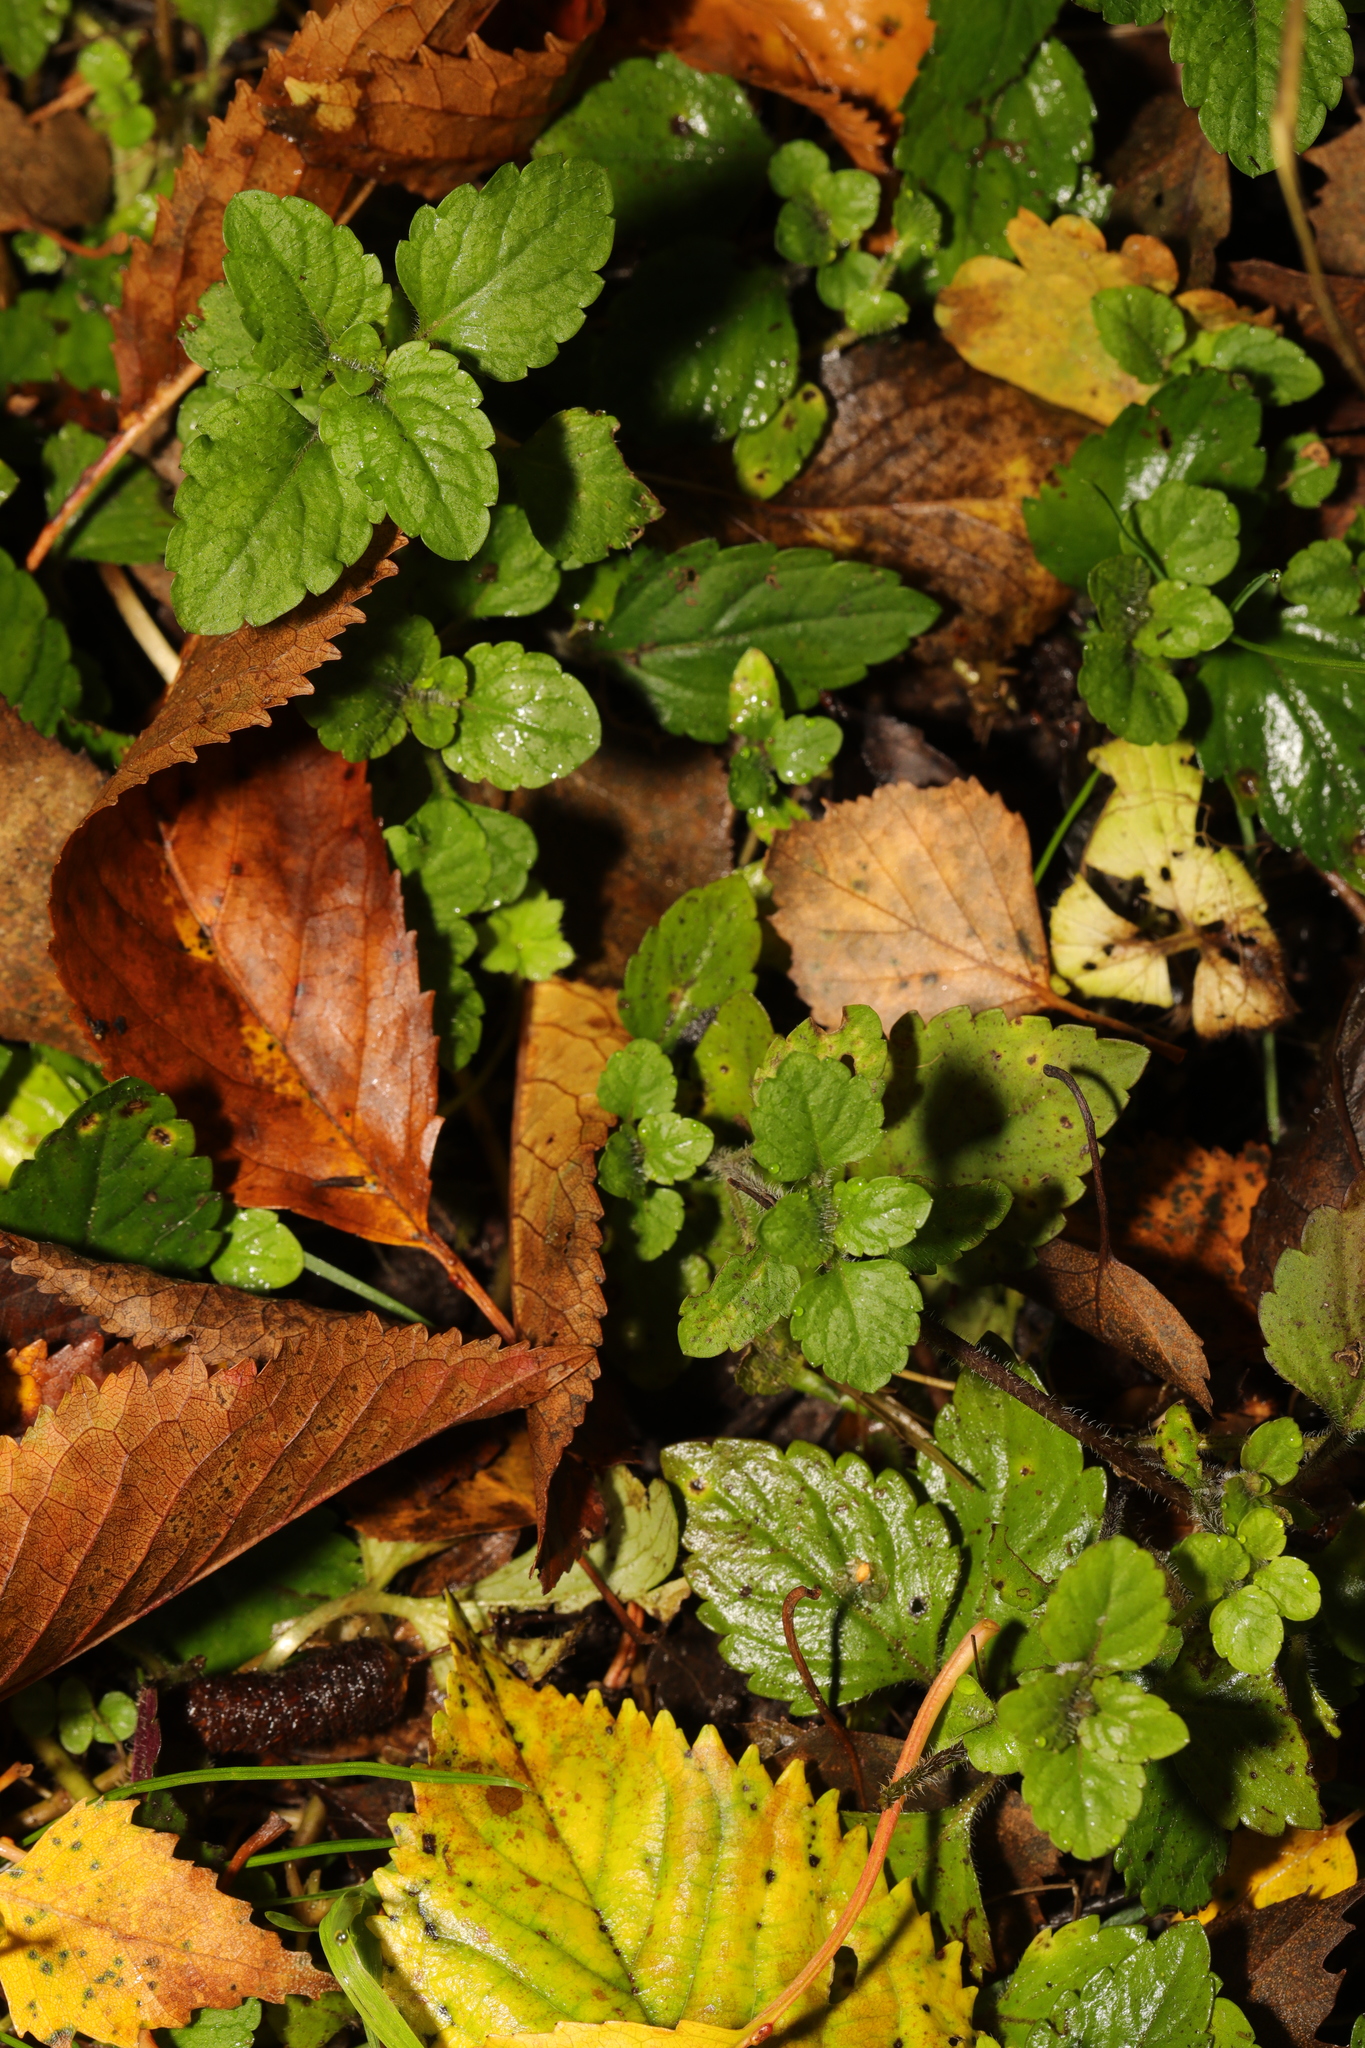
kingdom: Plantae
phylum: Tracheophyta
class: Magnoliopsida
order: Lamiales
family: Plantaginaceae
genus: Veronica
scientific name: Veronica montana
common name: Wood speedwell
